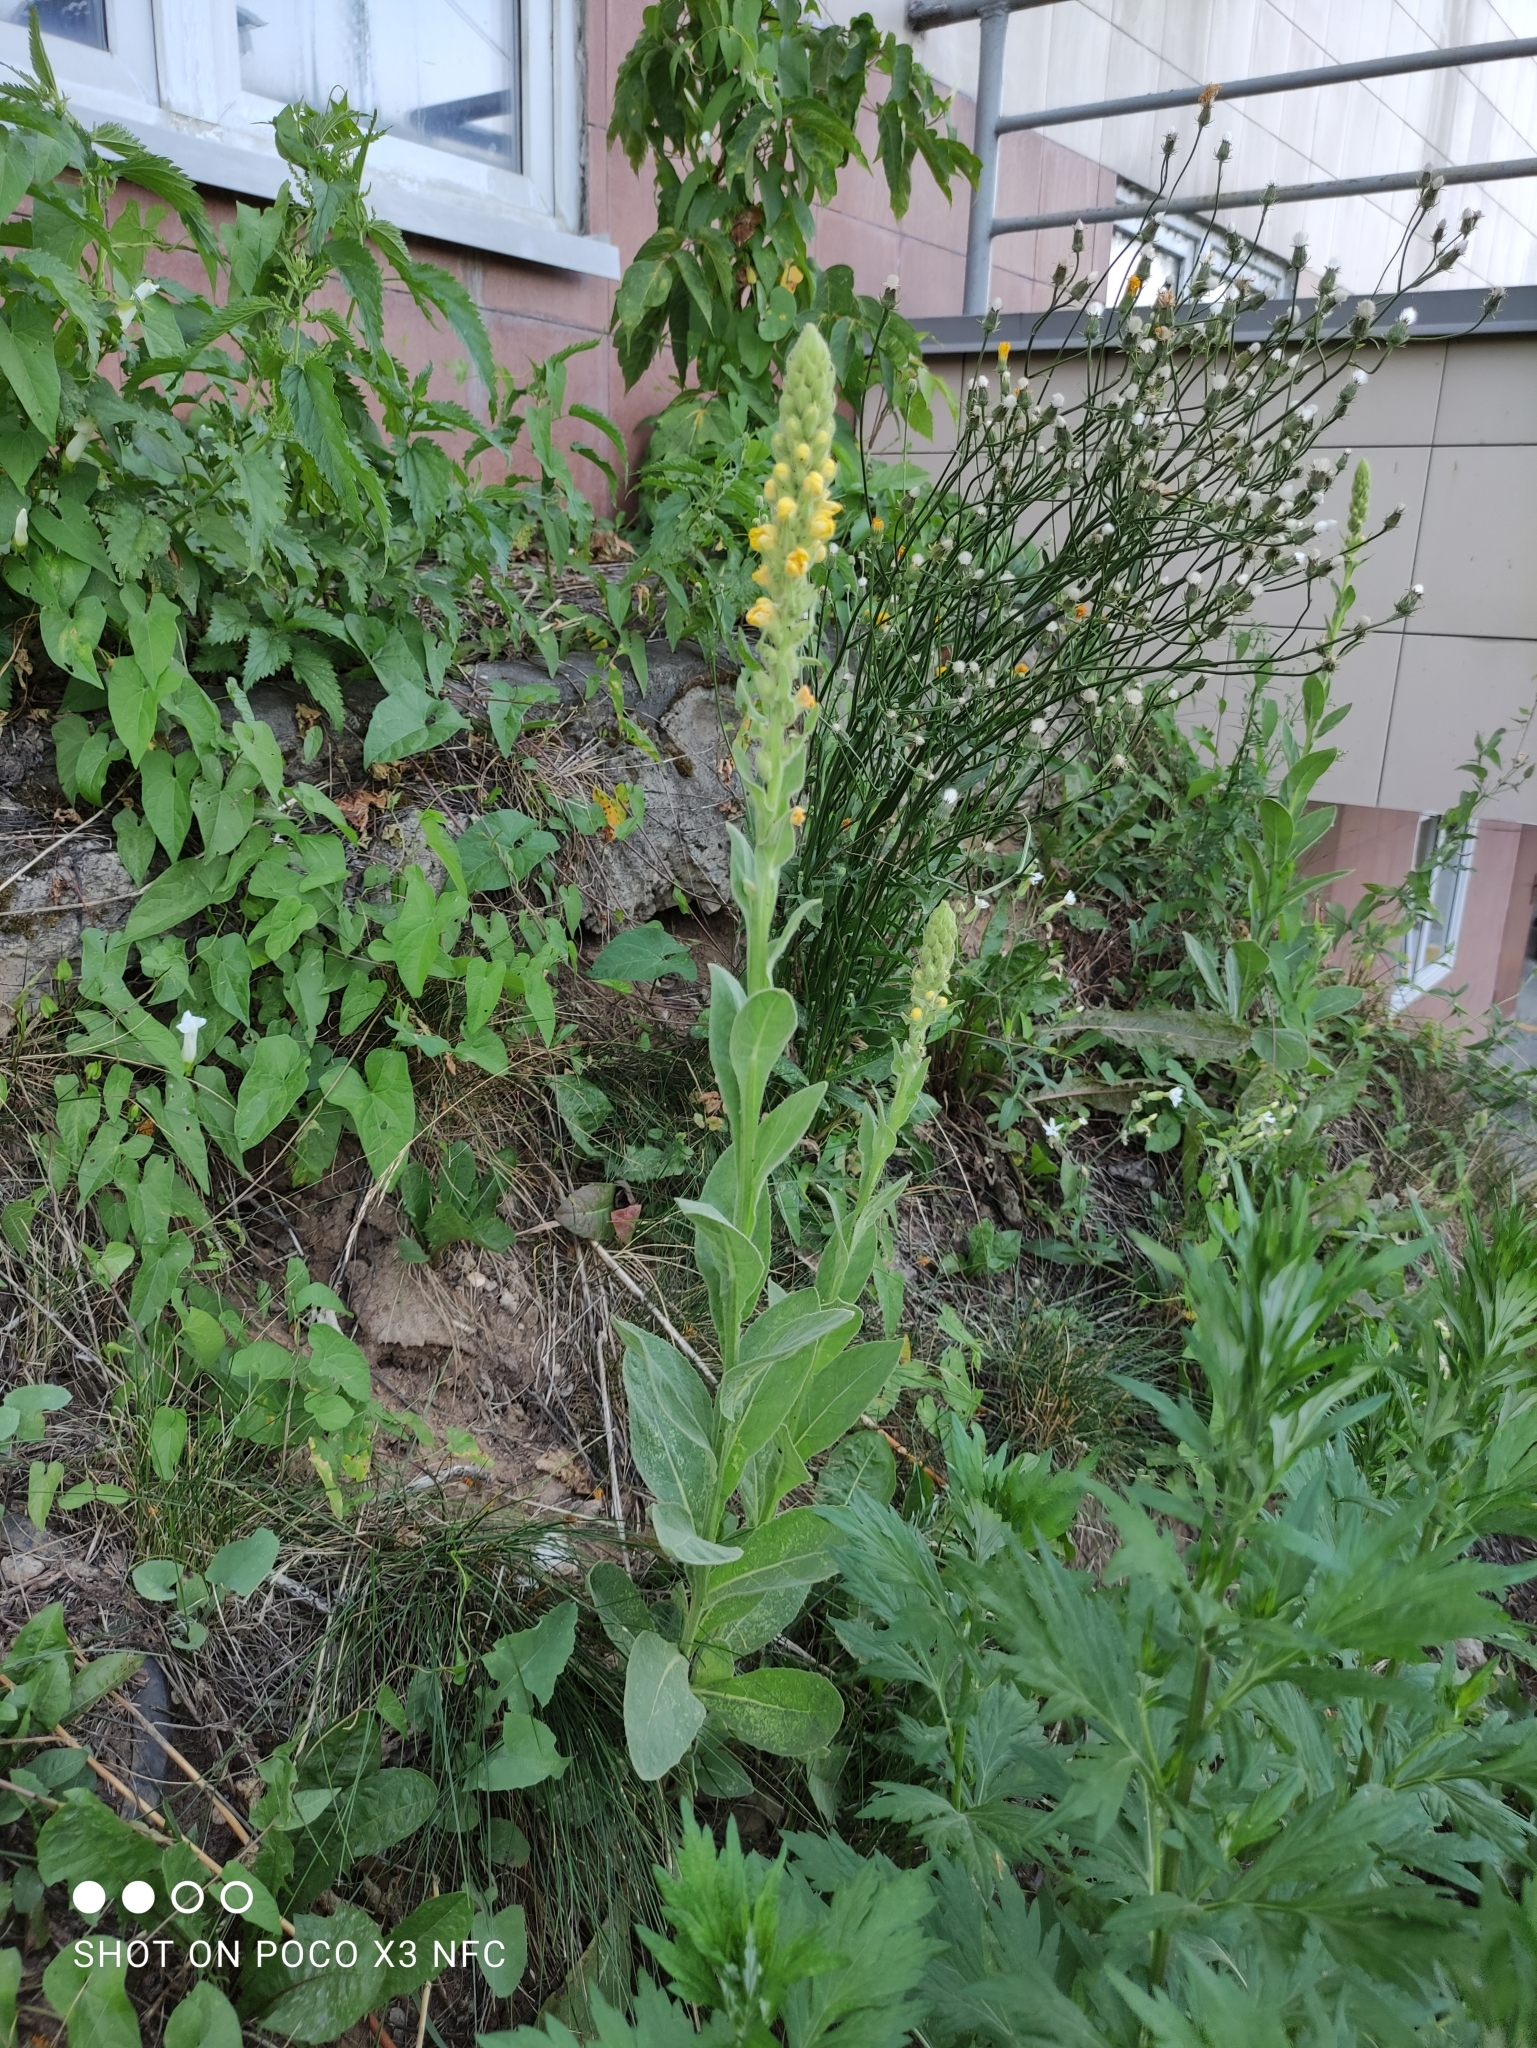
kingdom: Plantae
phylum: Tracheophyta
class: Magnoliopsida
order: Lamiales
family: Scrophulariaceae
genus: Verbascum
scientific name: Verbascum thapsus
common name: Common mullein
